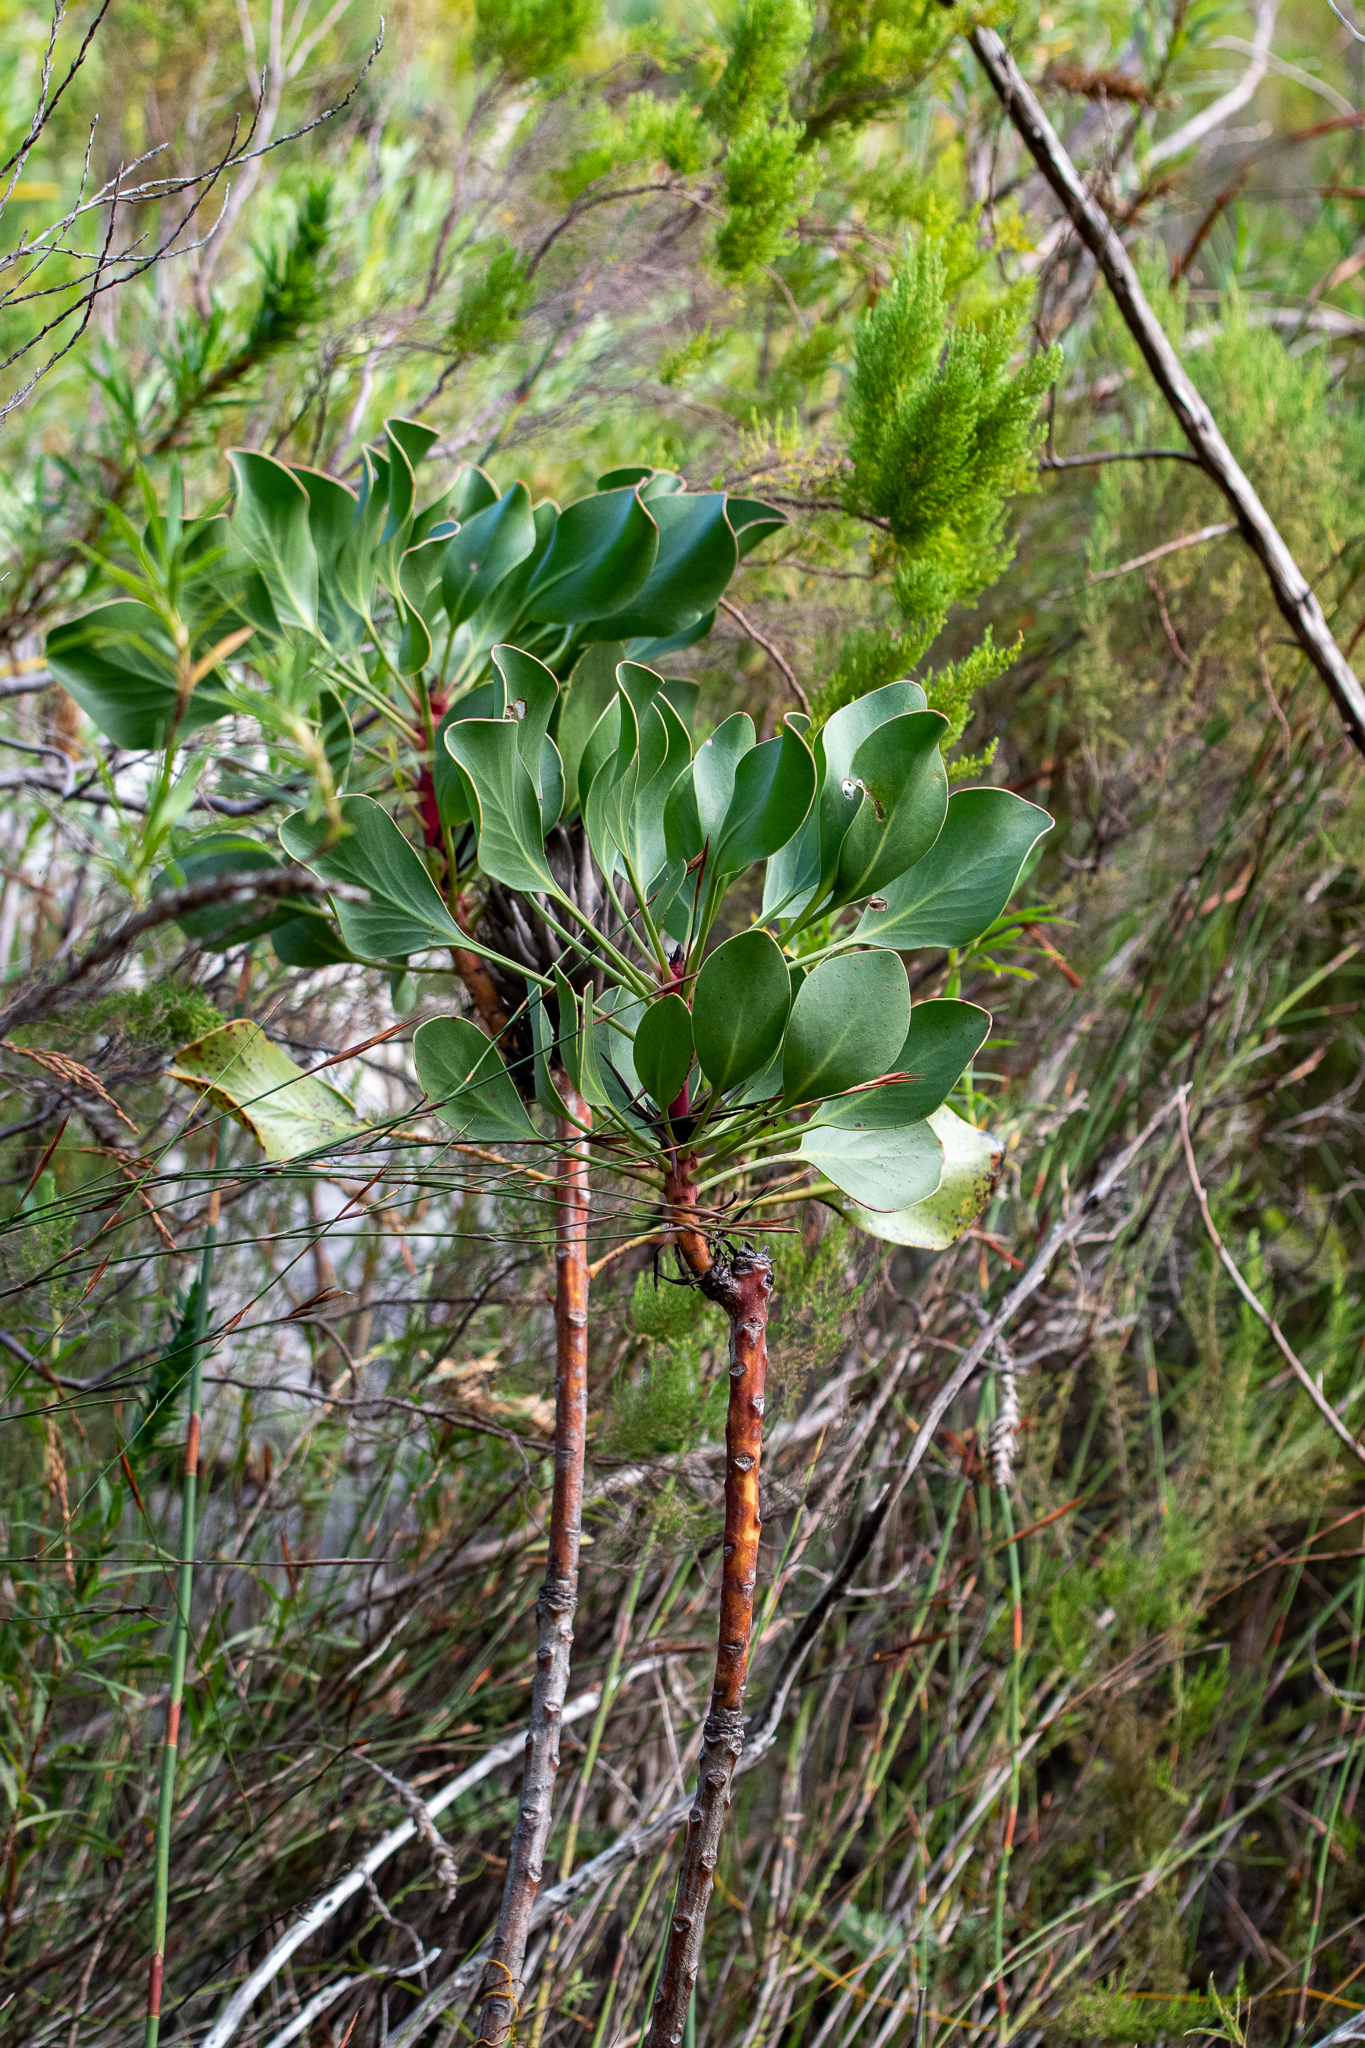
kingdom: Plantae
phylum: Tracheophyta
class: Magnoliopsida
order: Proteales
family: Proteaceae
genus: Protea
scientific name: Protea cynaroides
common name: King protea
